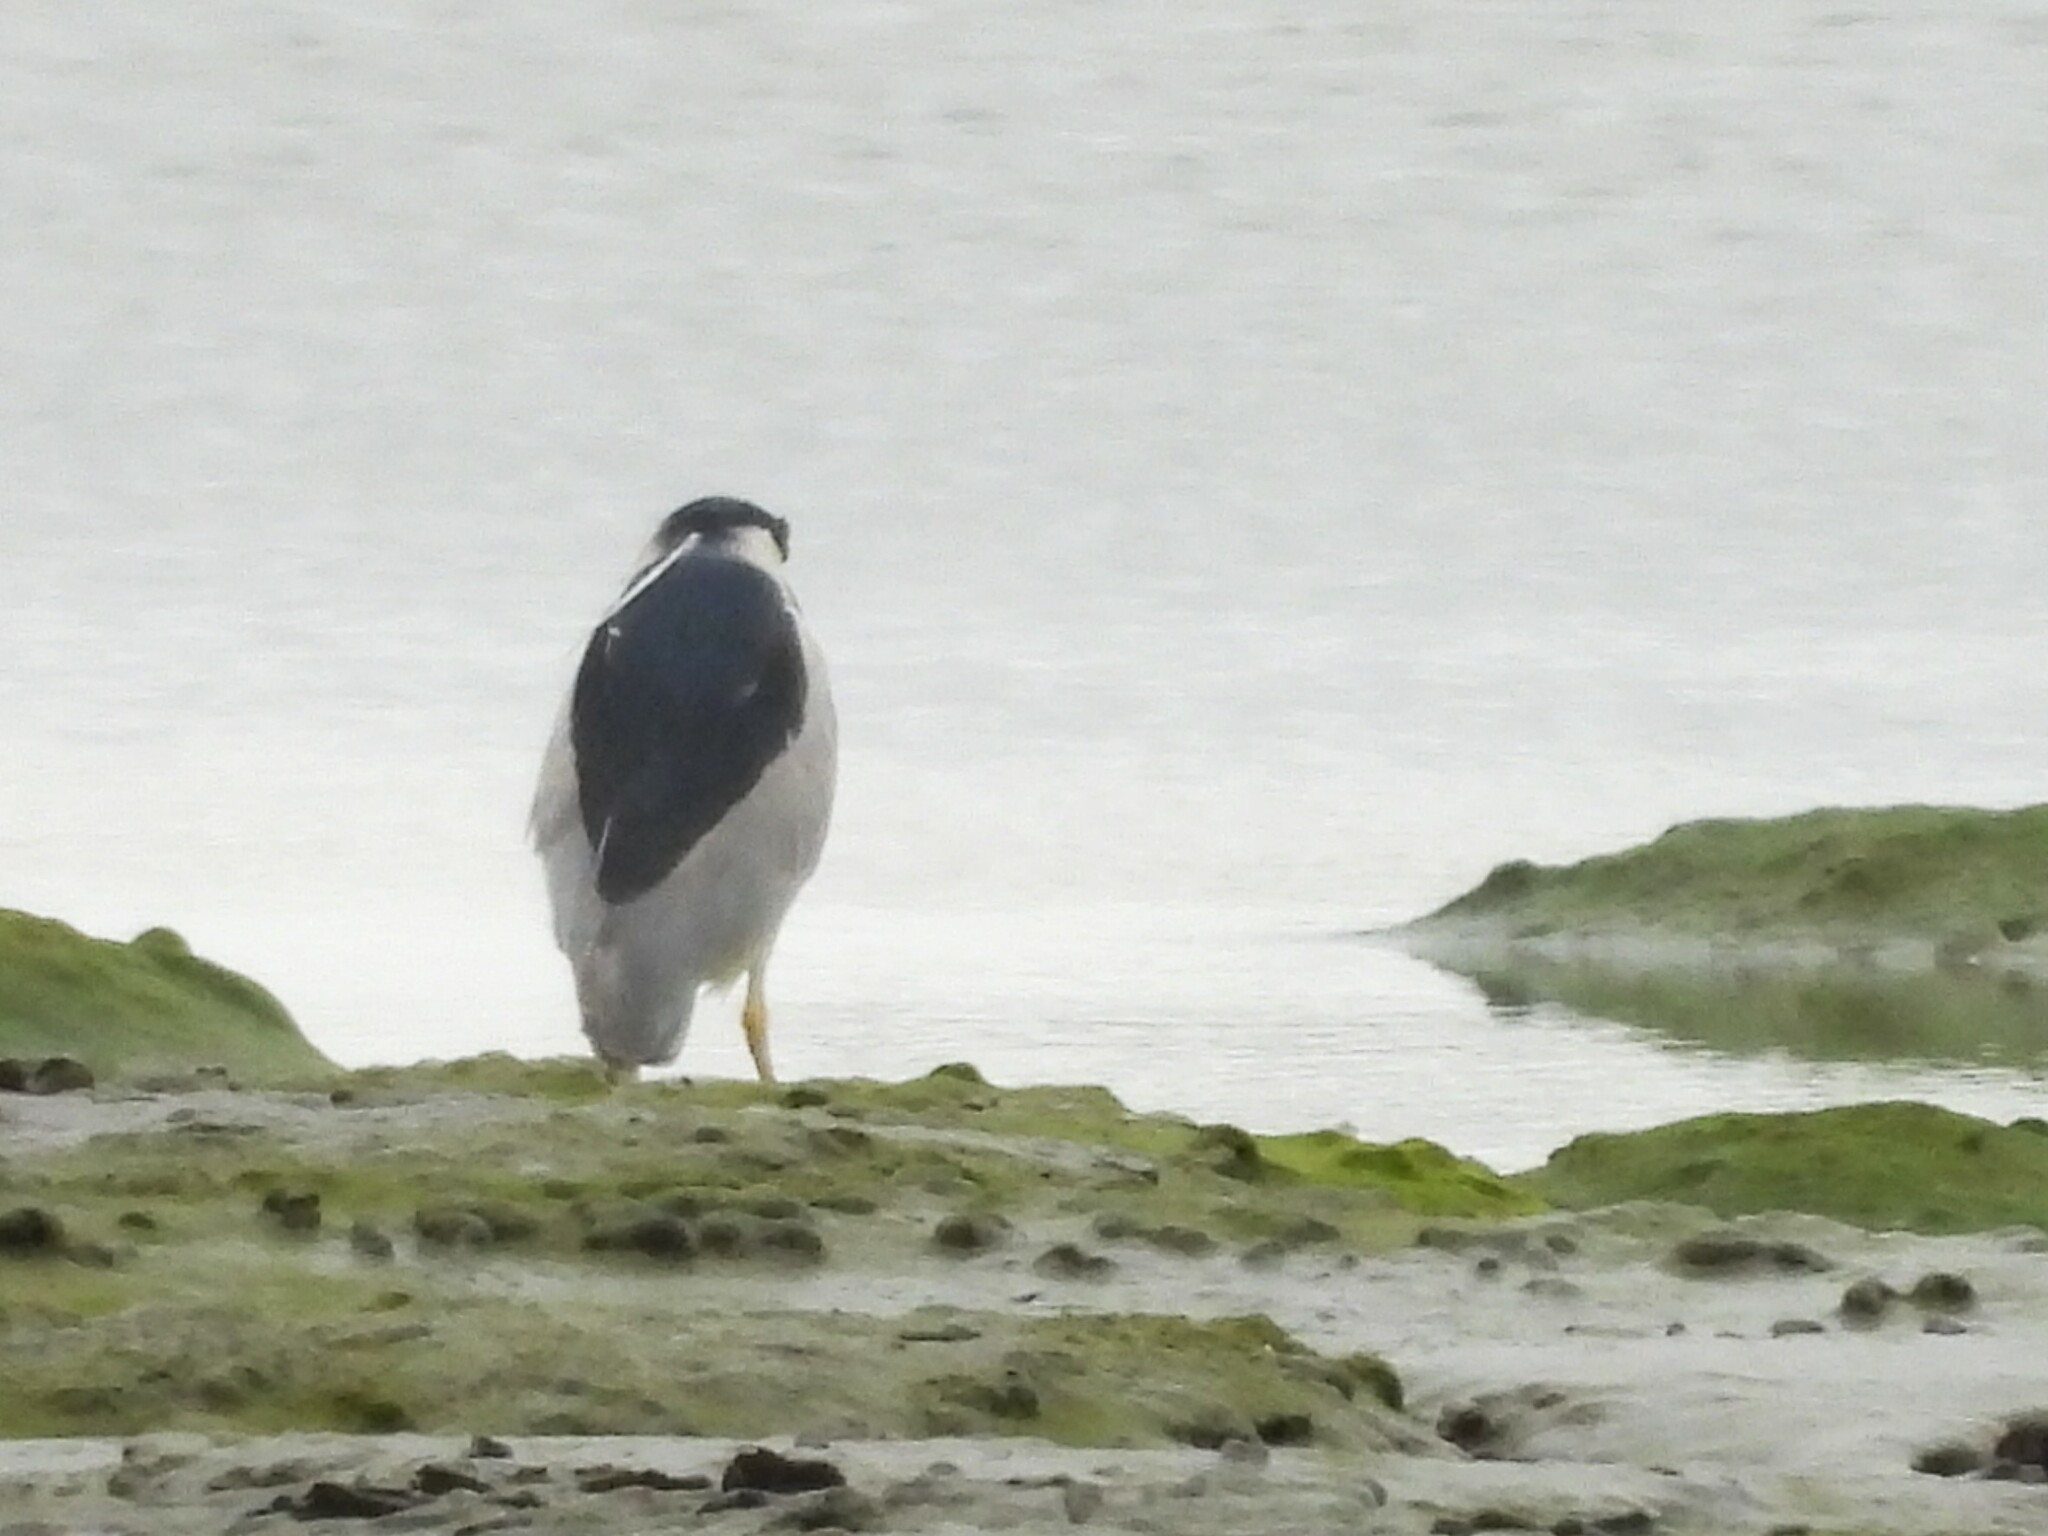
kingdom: Animalia
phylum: Chordata
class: Aves
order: Pelecaniformes
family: Ardeidae
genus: Nycticorax
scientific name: Nycticorax nycticorax
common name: Black-crowned night heron
